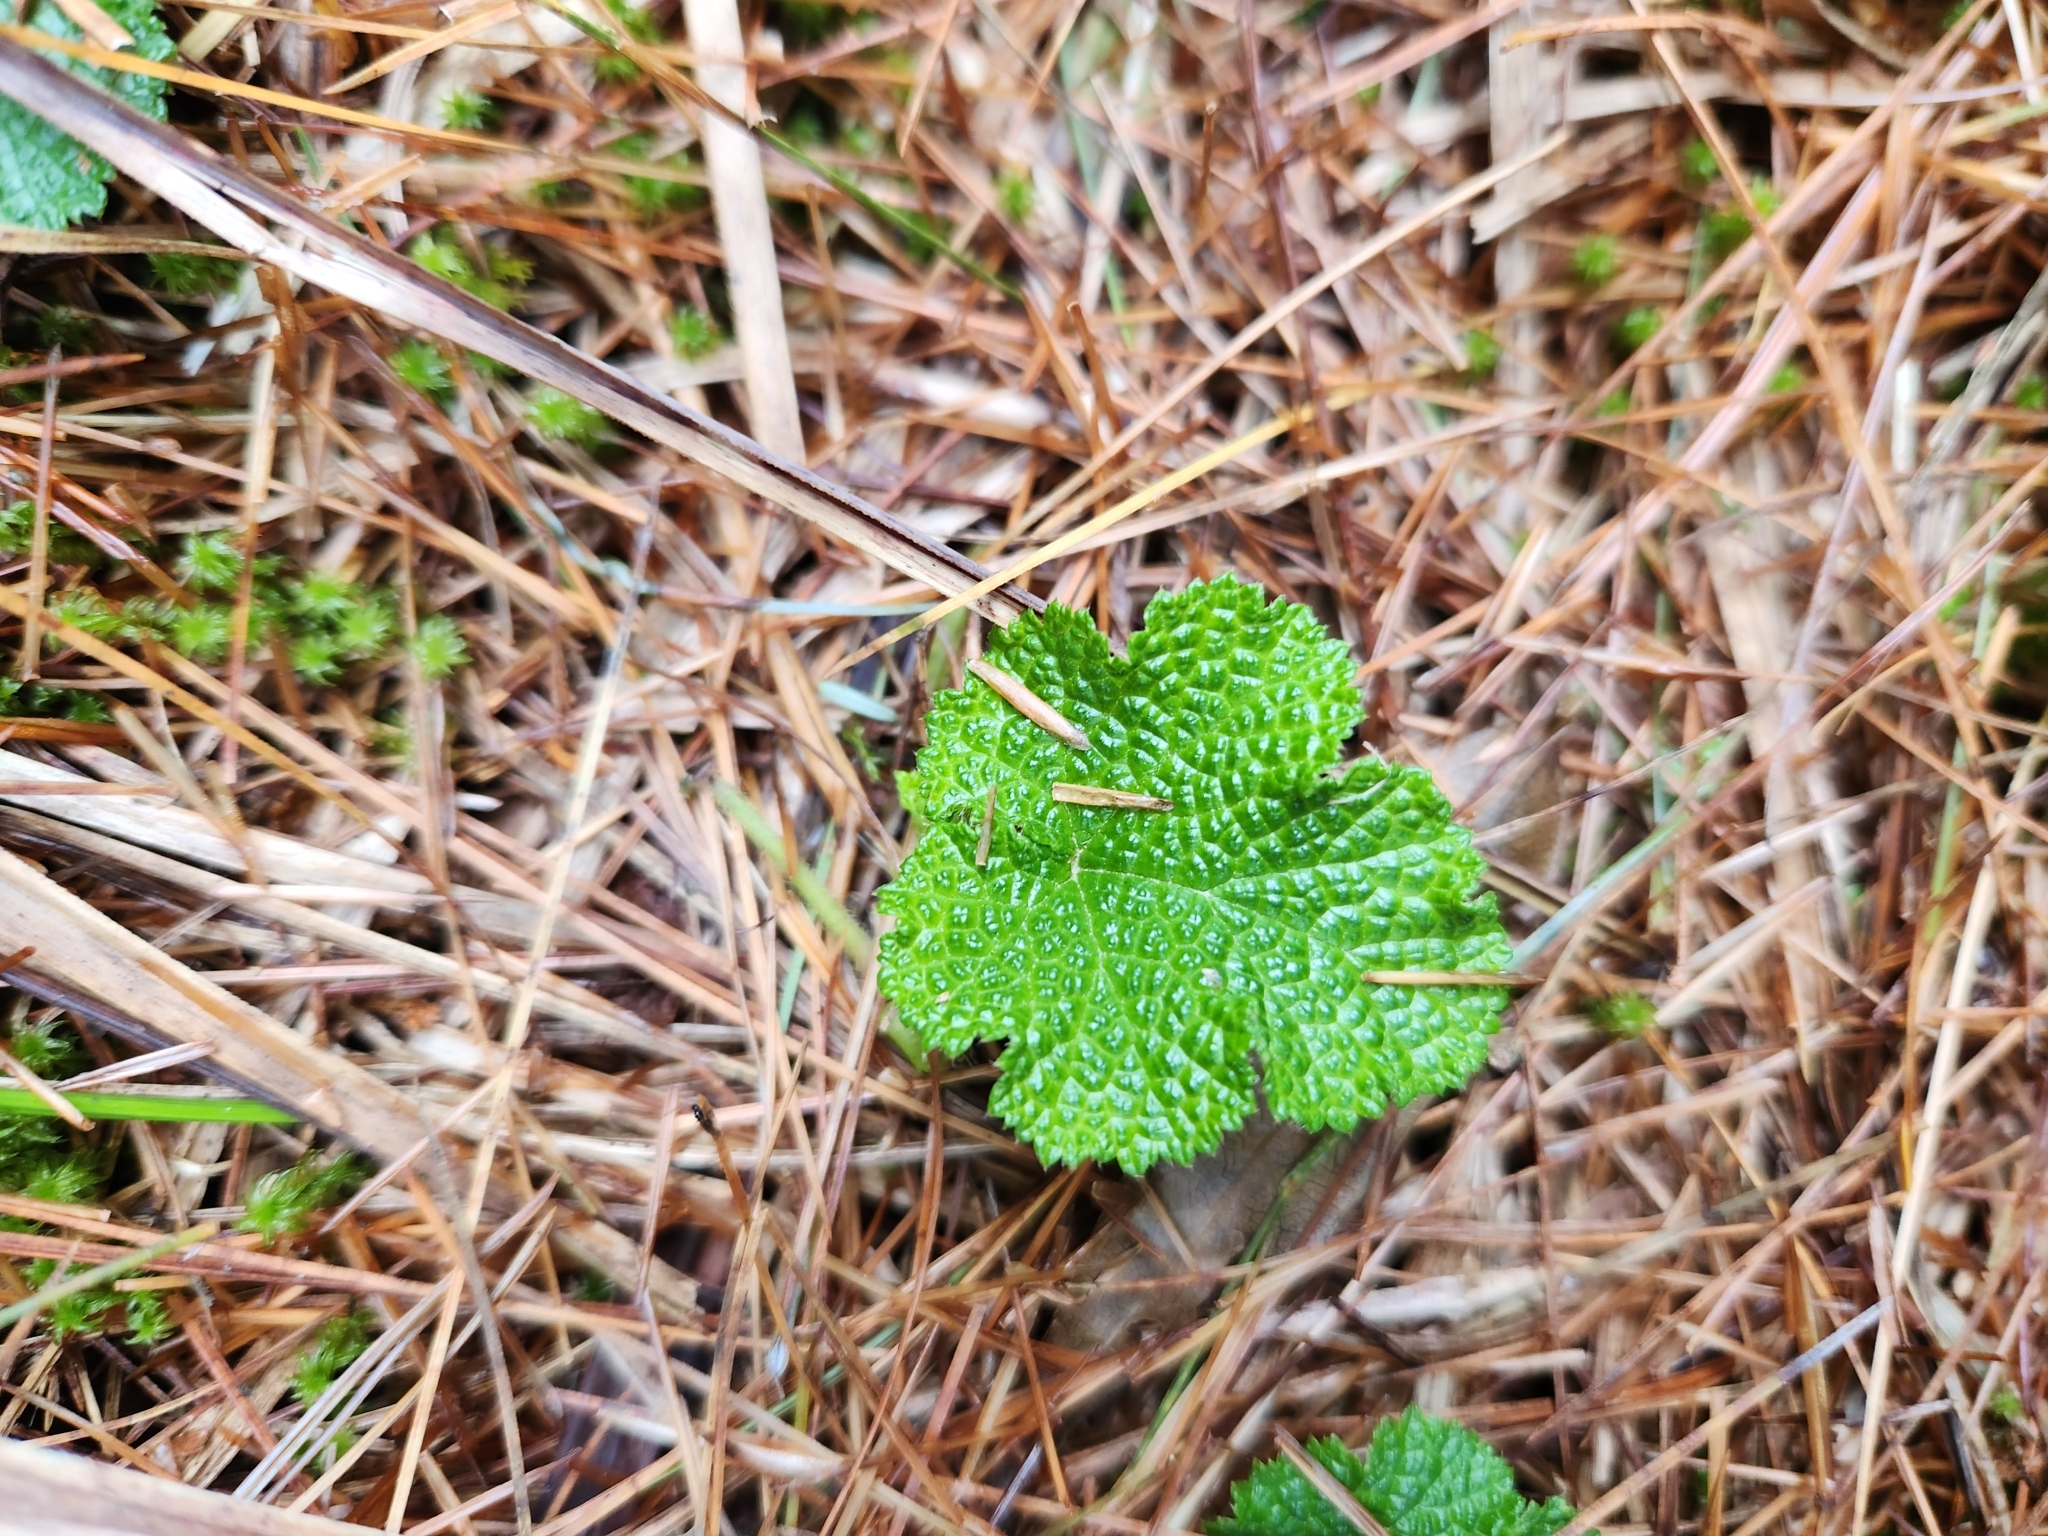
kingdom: Plantae
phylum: Tracheophyta
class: Magnoliopsida
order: Rosales
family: Rosaceae
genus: Rubus
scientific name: Rubus rolfei
